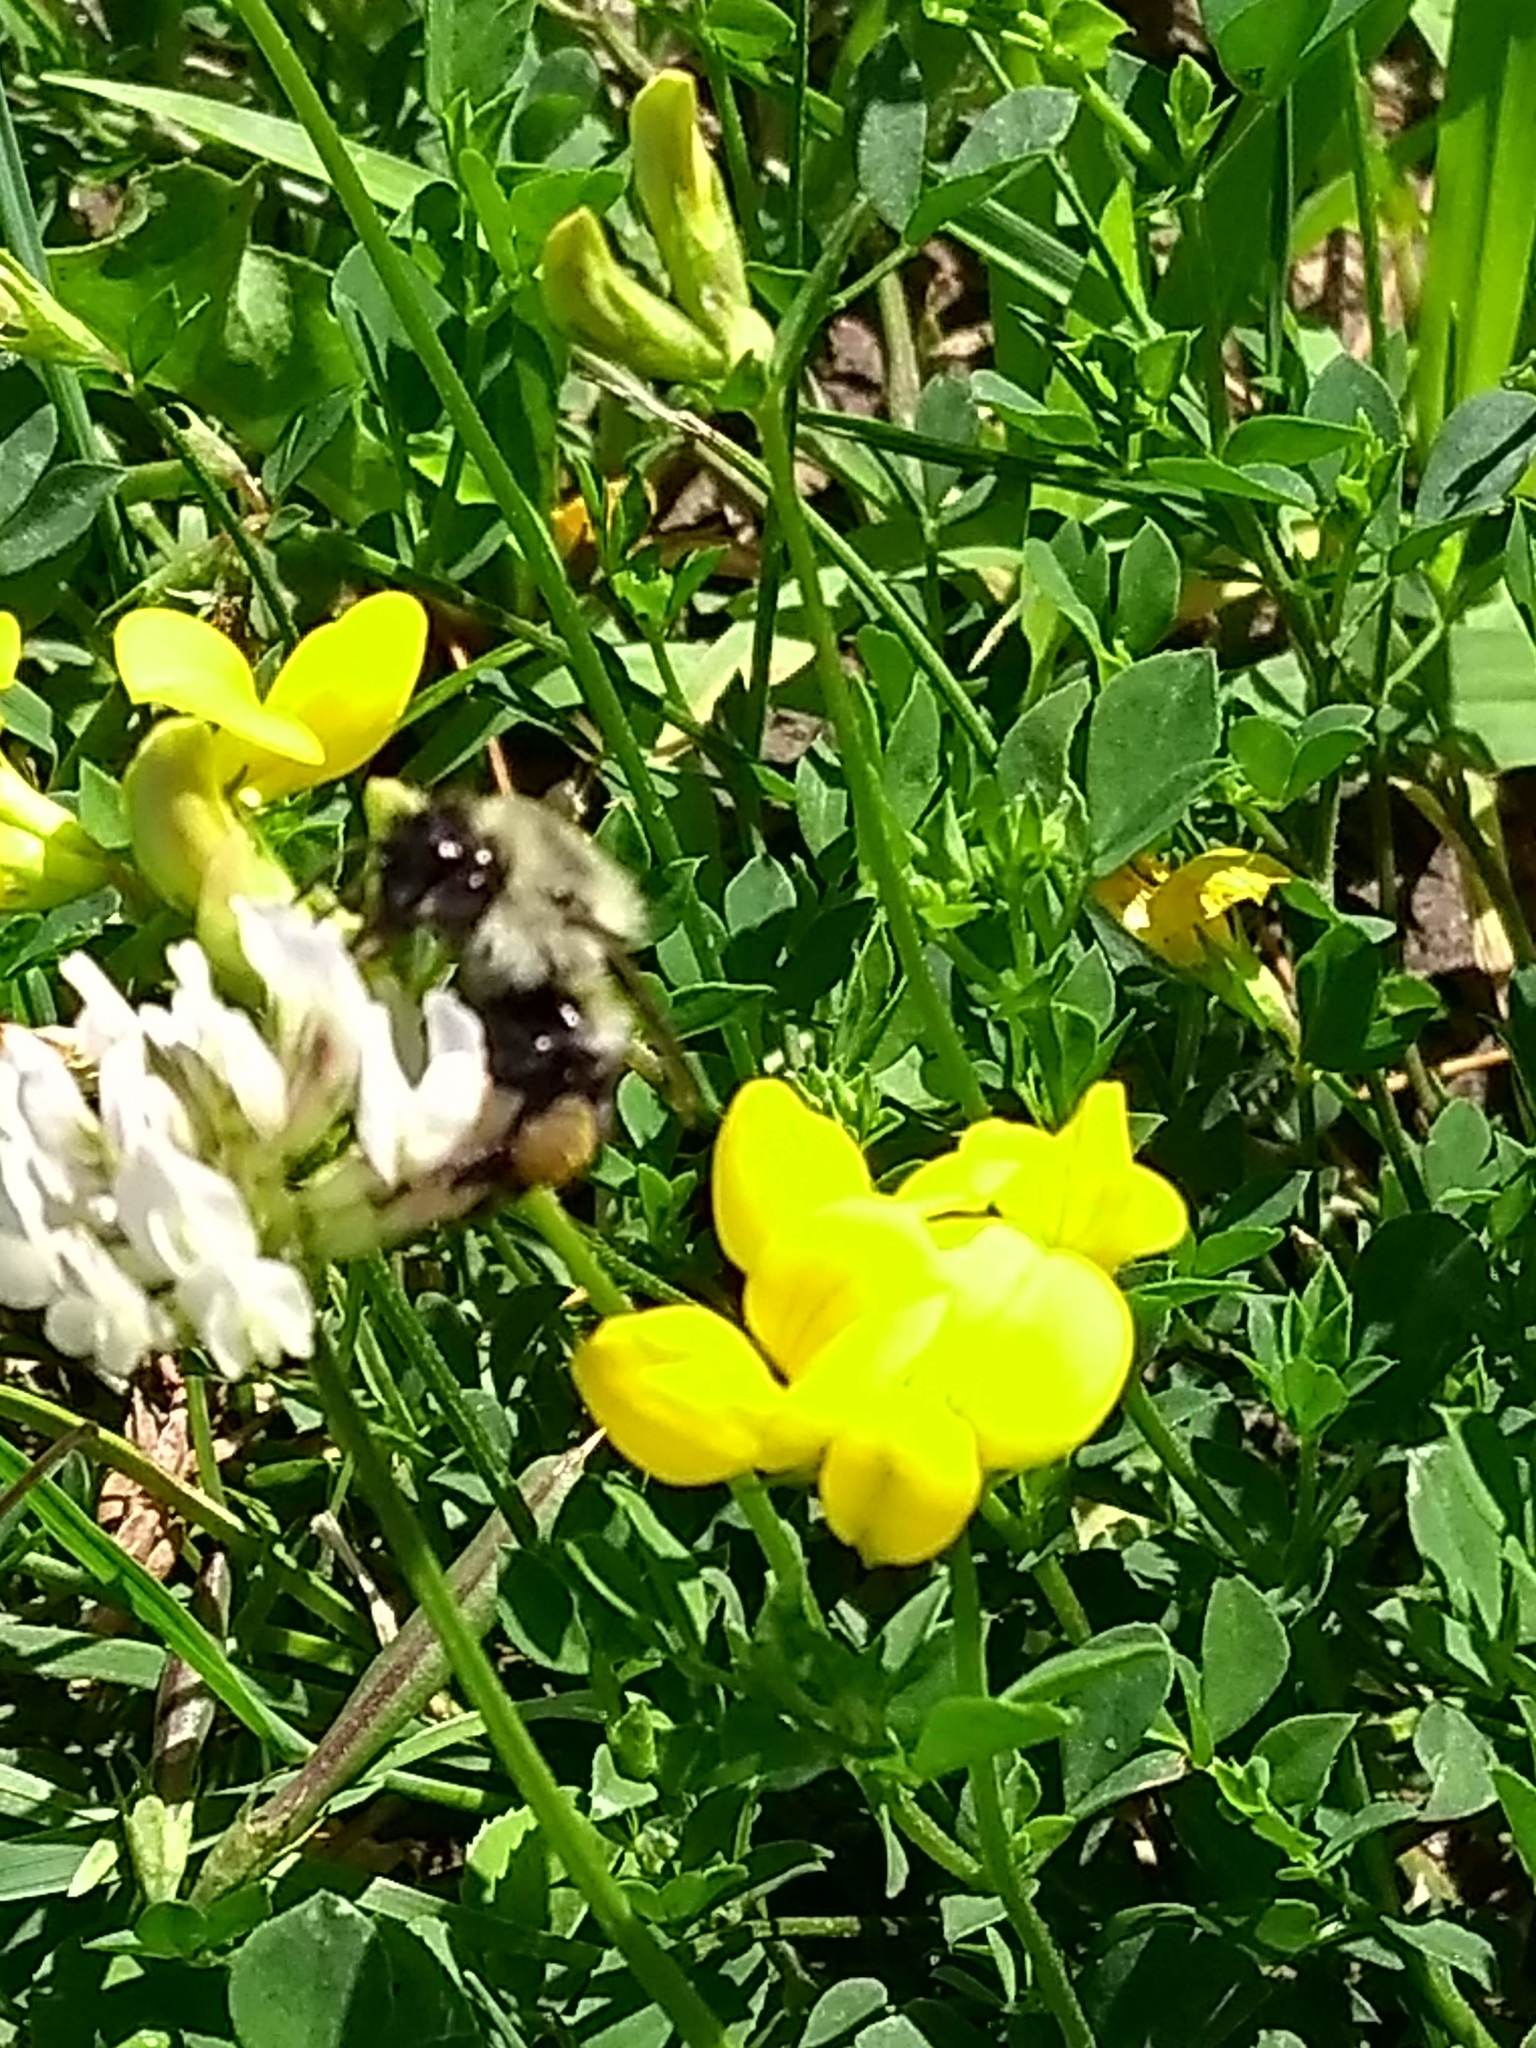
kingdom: Animalia
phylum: Arthropoda
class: Insecta
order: Hymenoptera
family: Apidae
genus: Bombus
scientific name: Bombus impatiens
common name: Common eastern bumble bee
